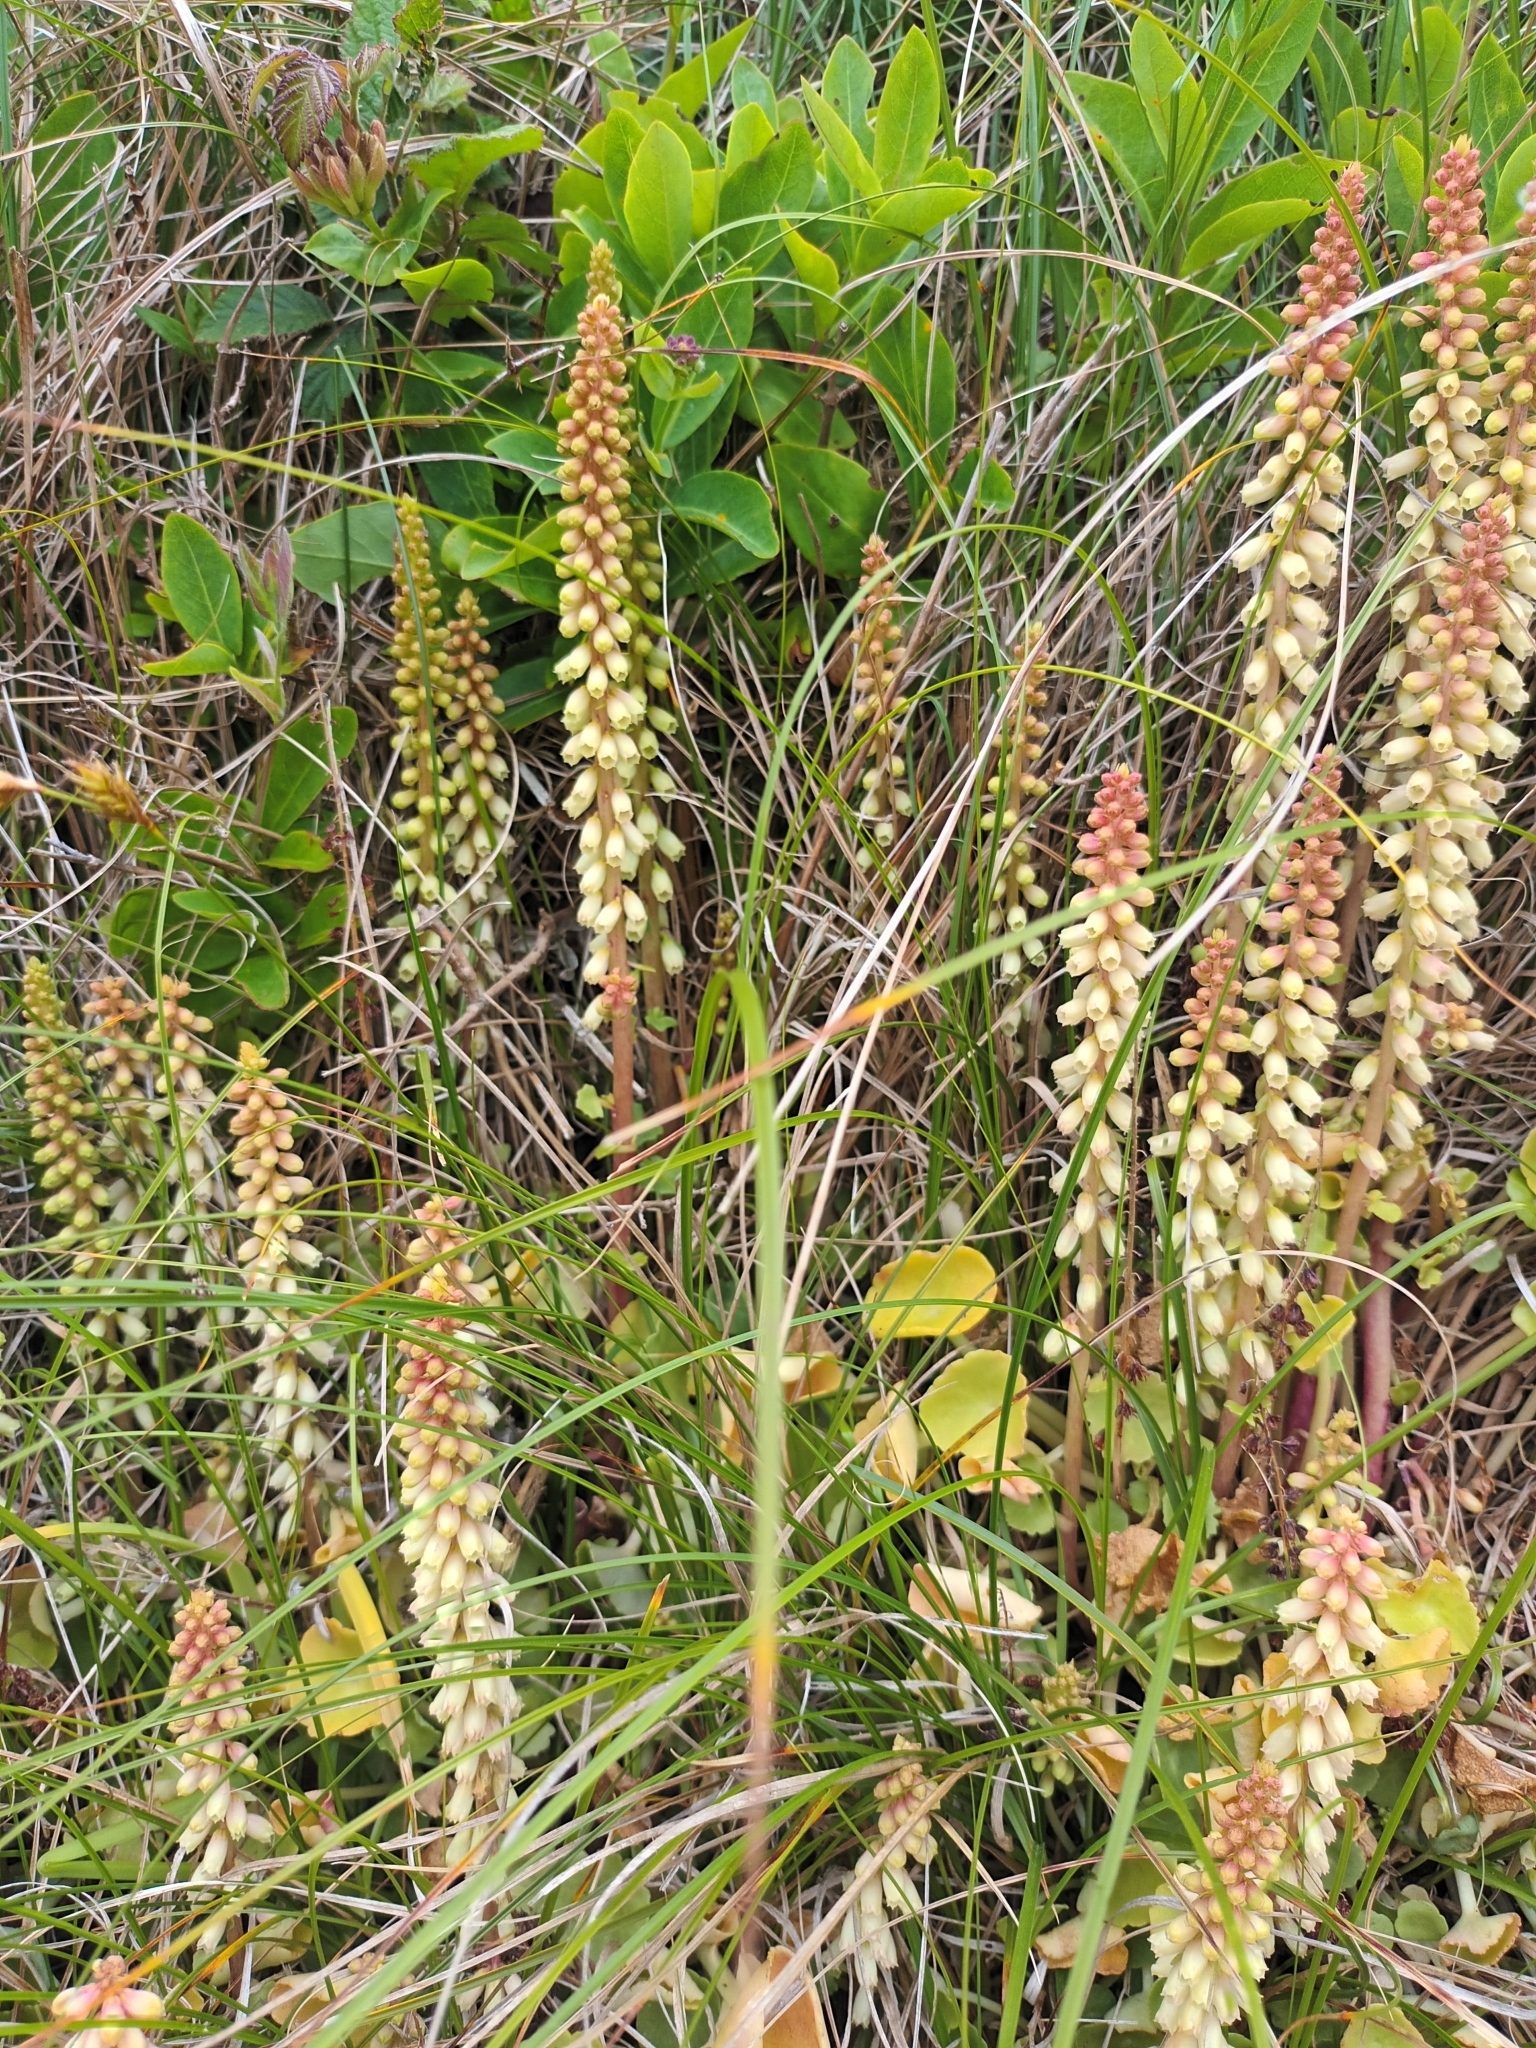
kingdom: Plantae
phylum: Tracheophyta
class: Magnoliopsida
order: Saxifragales
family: Crassulaceae
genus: Umbilicus
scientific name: Umbilicus rupestris
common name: Navelwort
